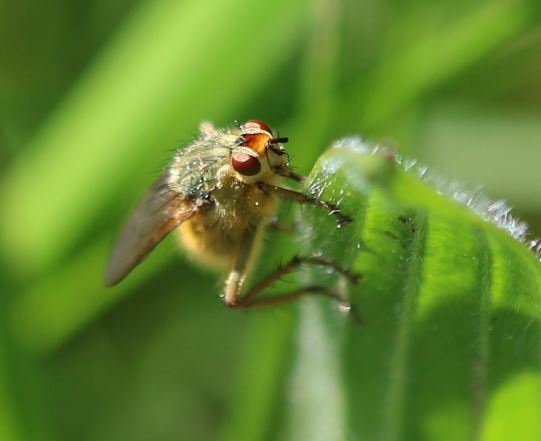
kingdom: Animalia
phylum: Arthropoda
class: Insecta
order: Diptera
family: Scathophagidae
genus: Scathophaga
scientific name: Scathophaga stercoraria
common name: Yellow dung fly
